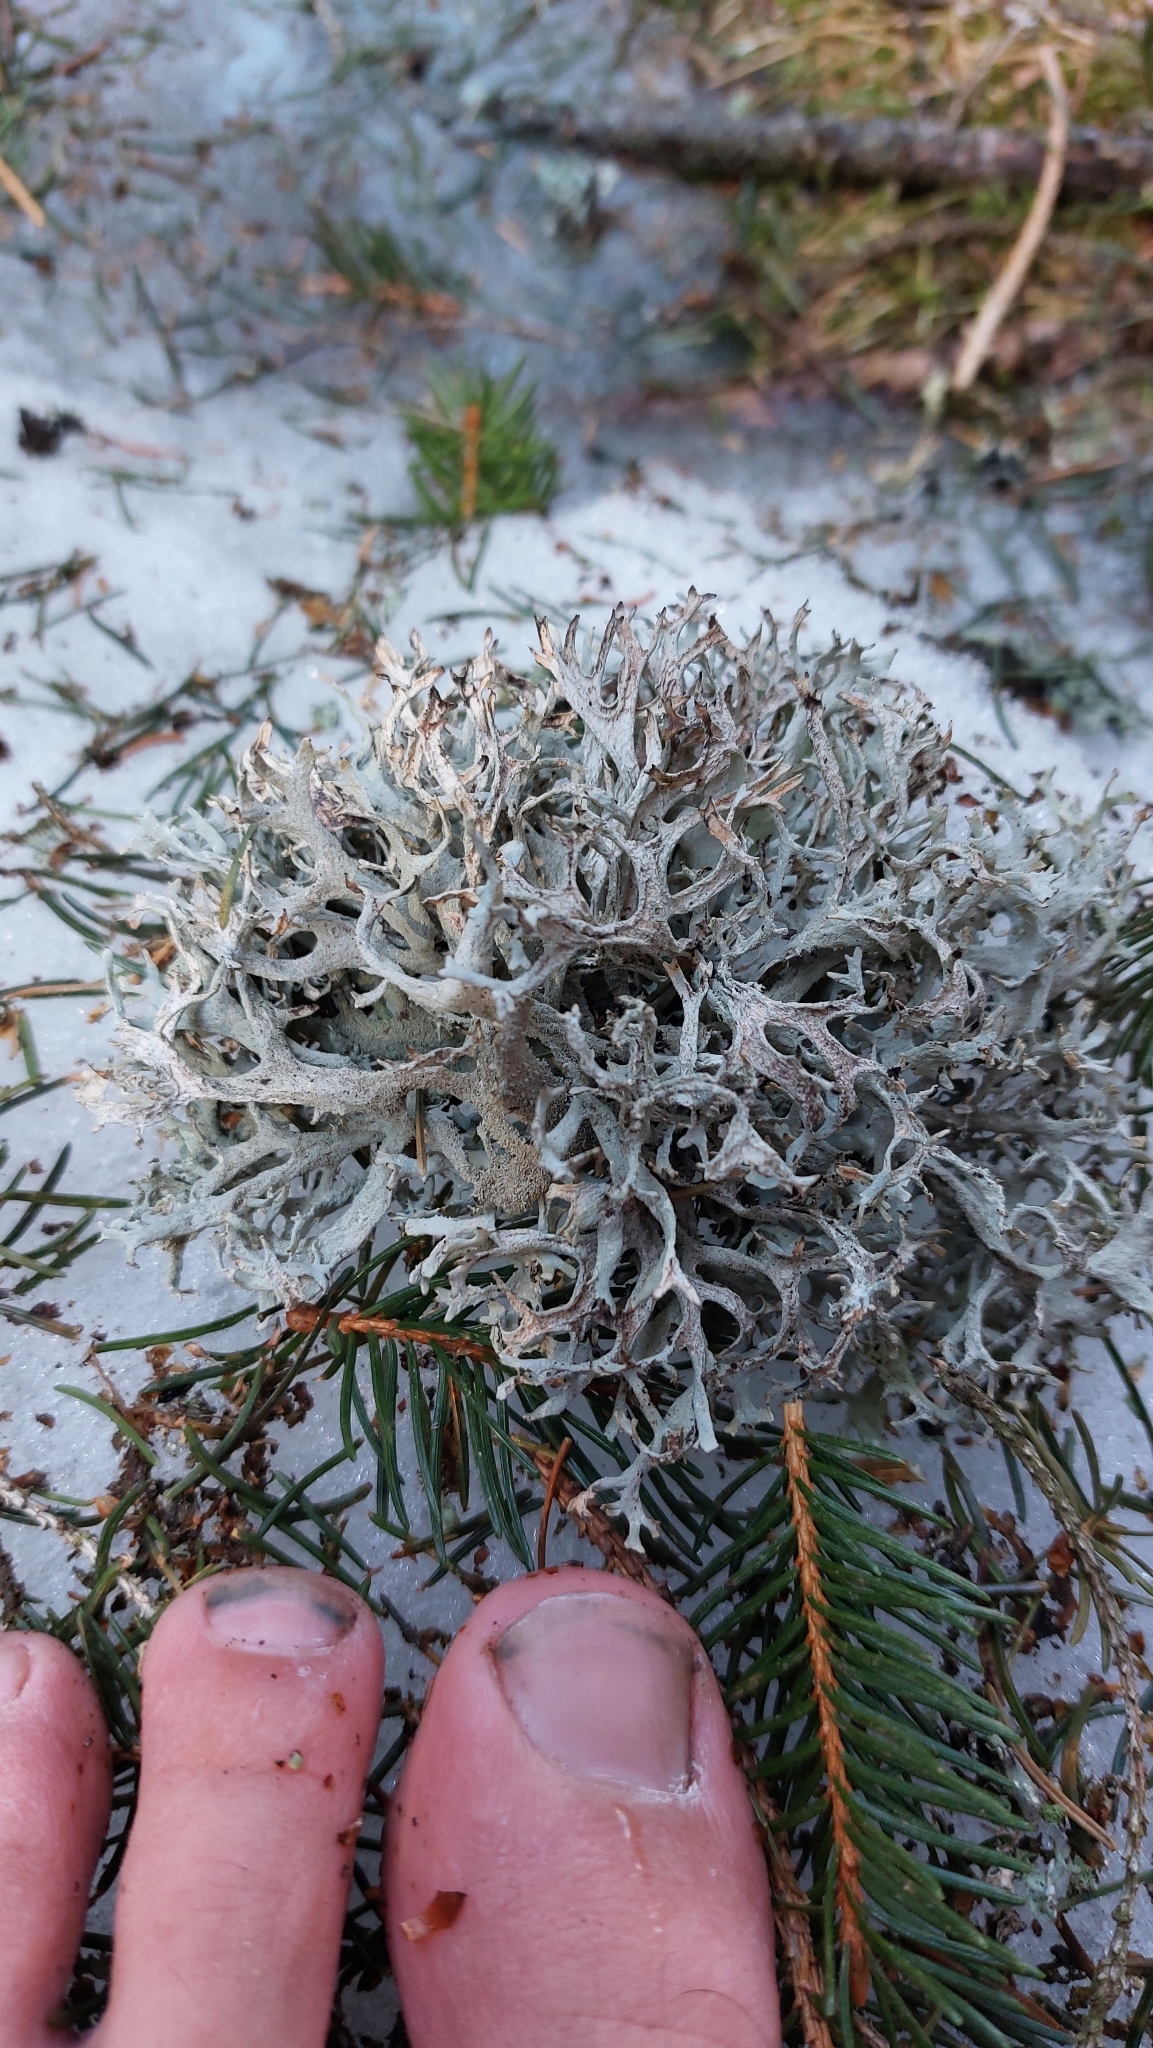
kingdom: Fungi
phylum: Ascomycota
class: Lecanoromycetes
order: Lecanorales
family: Parmeliaceae
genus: Pseudevernia
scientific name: Pseudevernia furfuracea
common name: Tree moss
